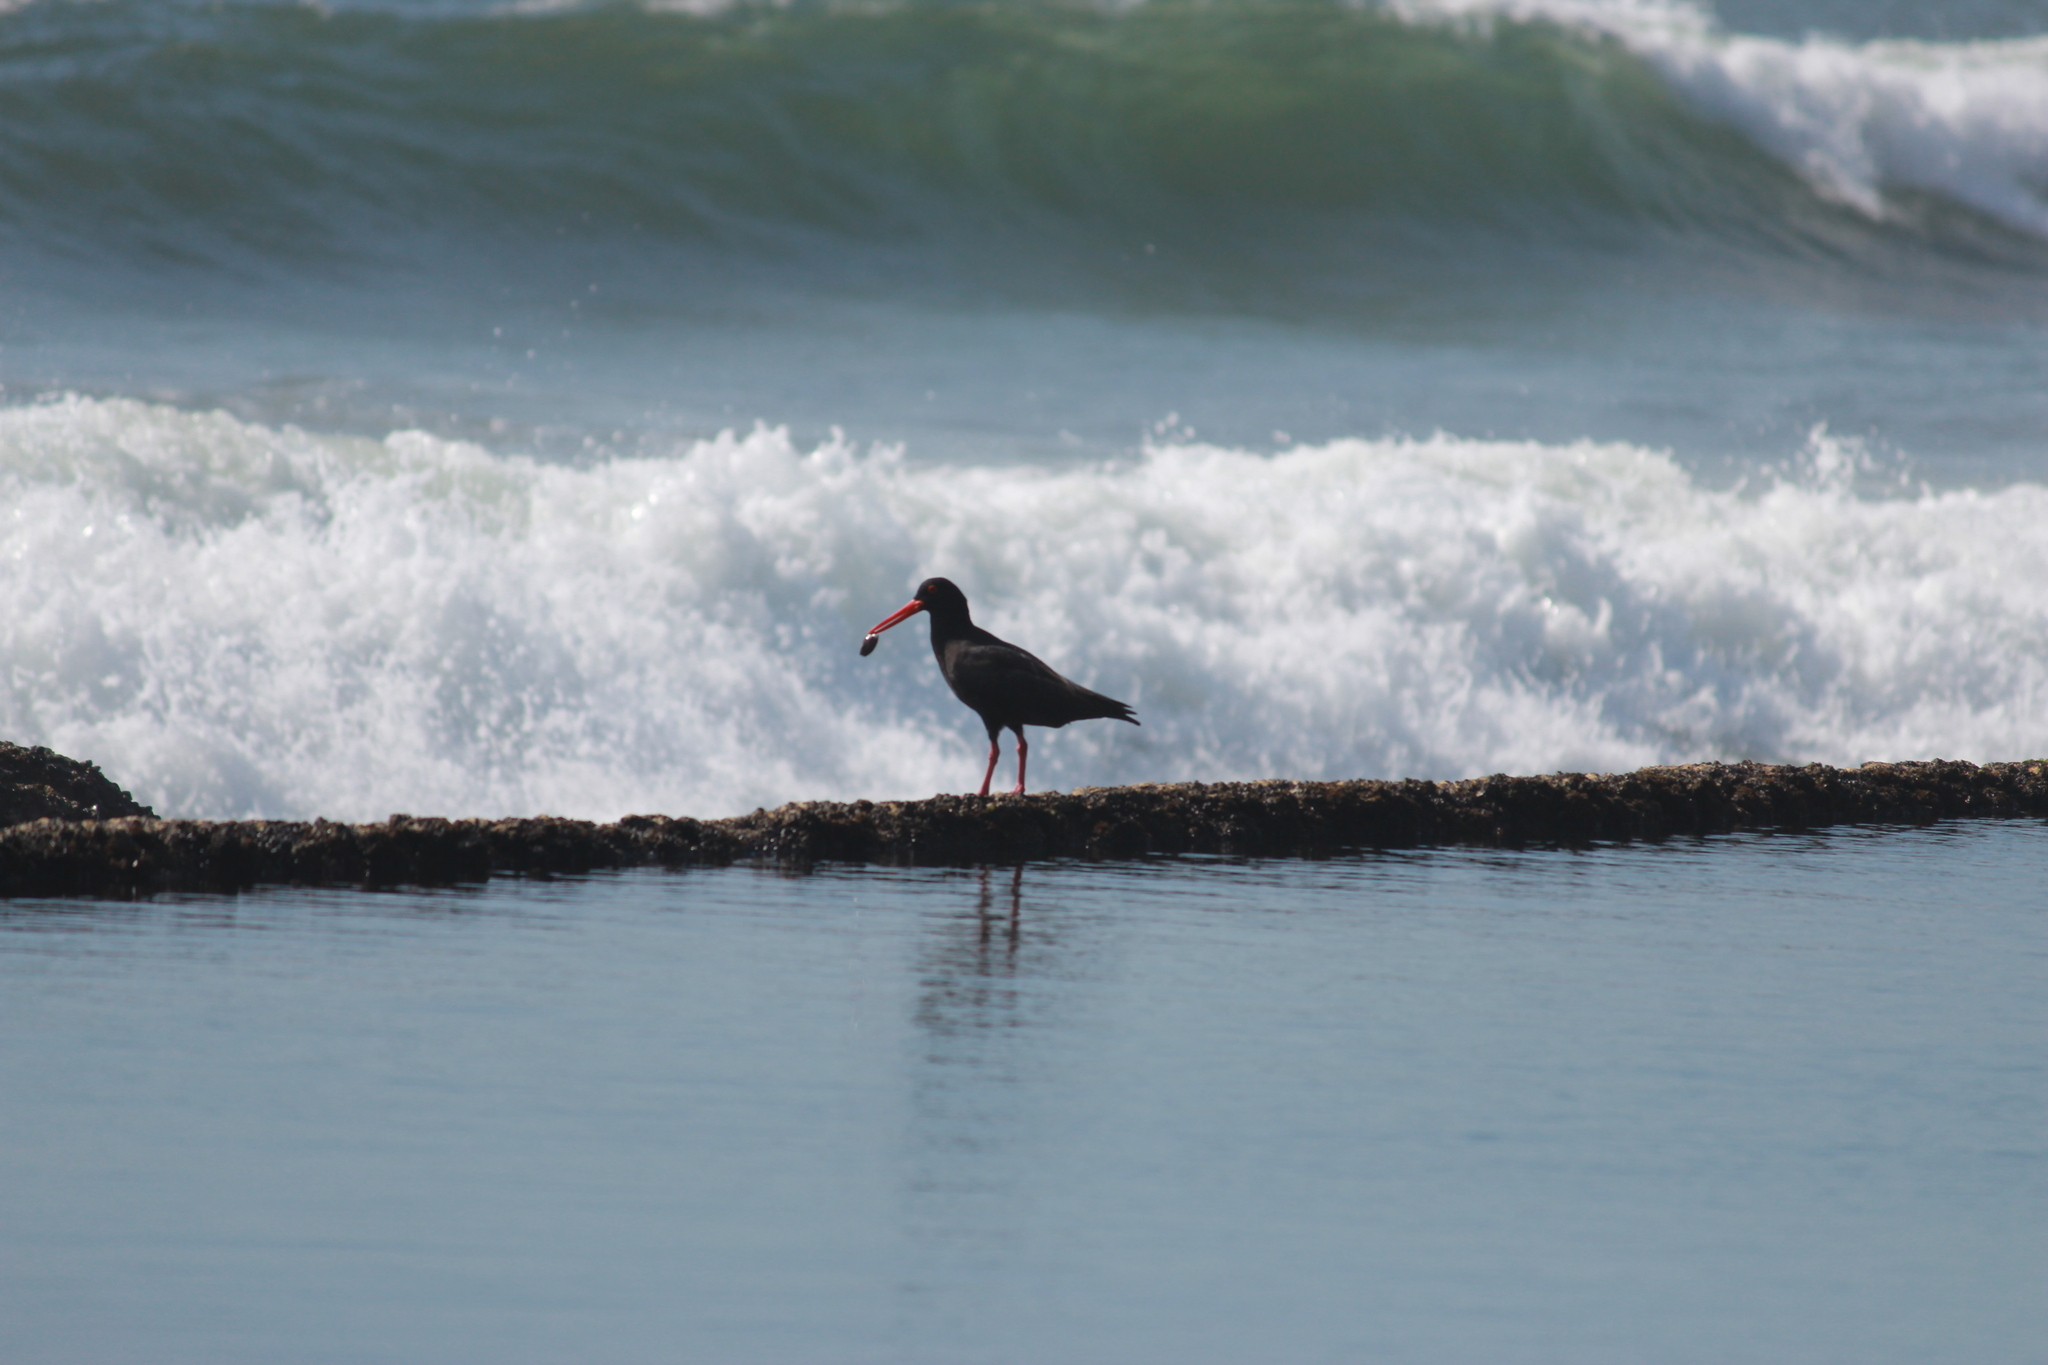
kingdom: Animalia
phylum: Chordata
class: Aves
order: Charadriiformes
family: Haematopodidae
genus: Haematopus
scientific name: Haematopus moquini
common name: African oystercatcher
